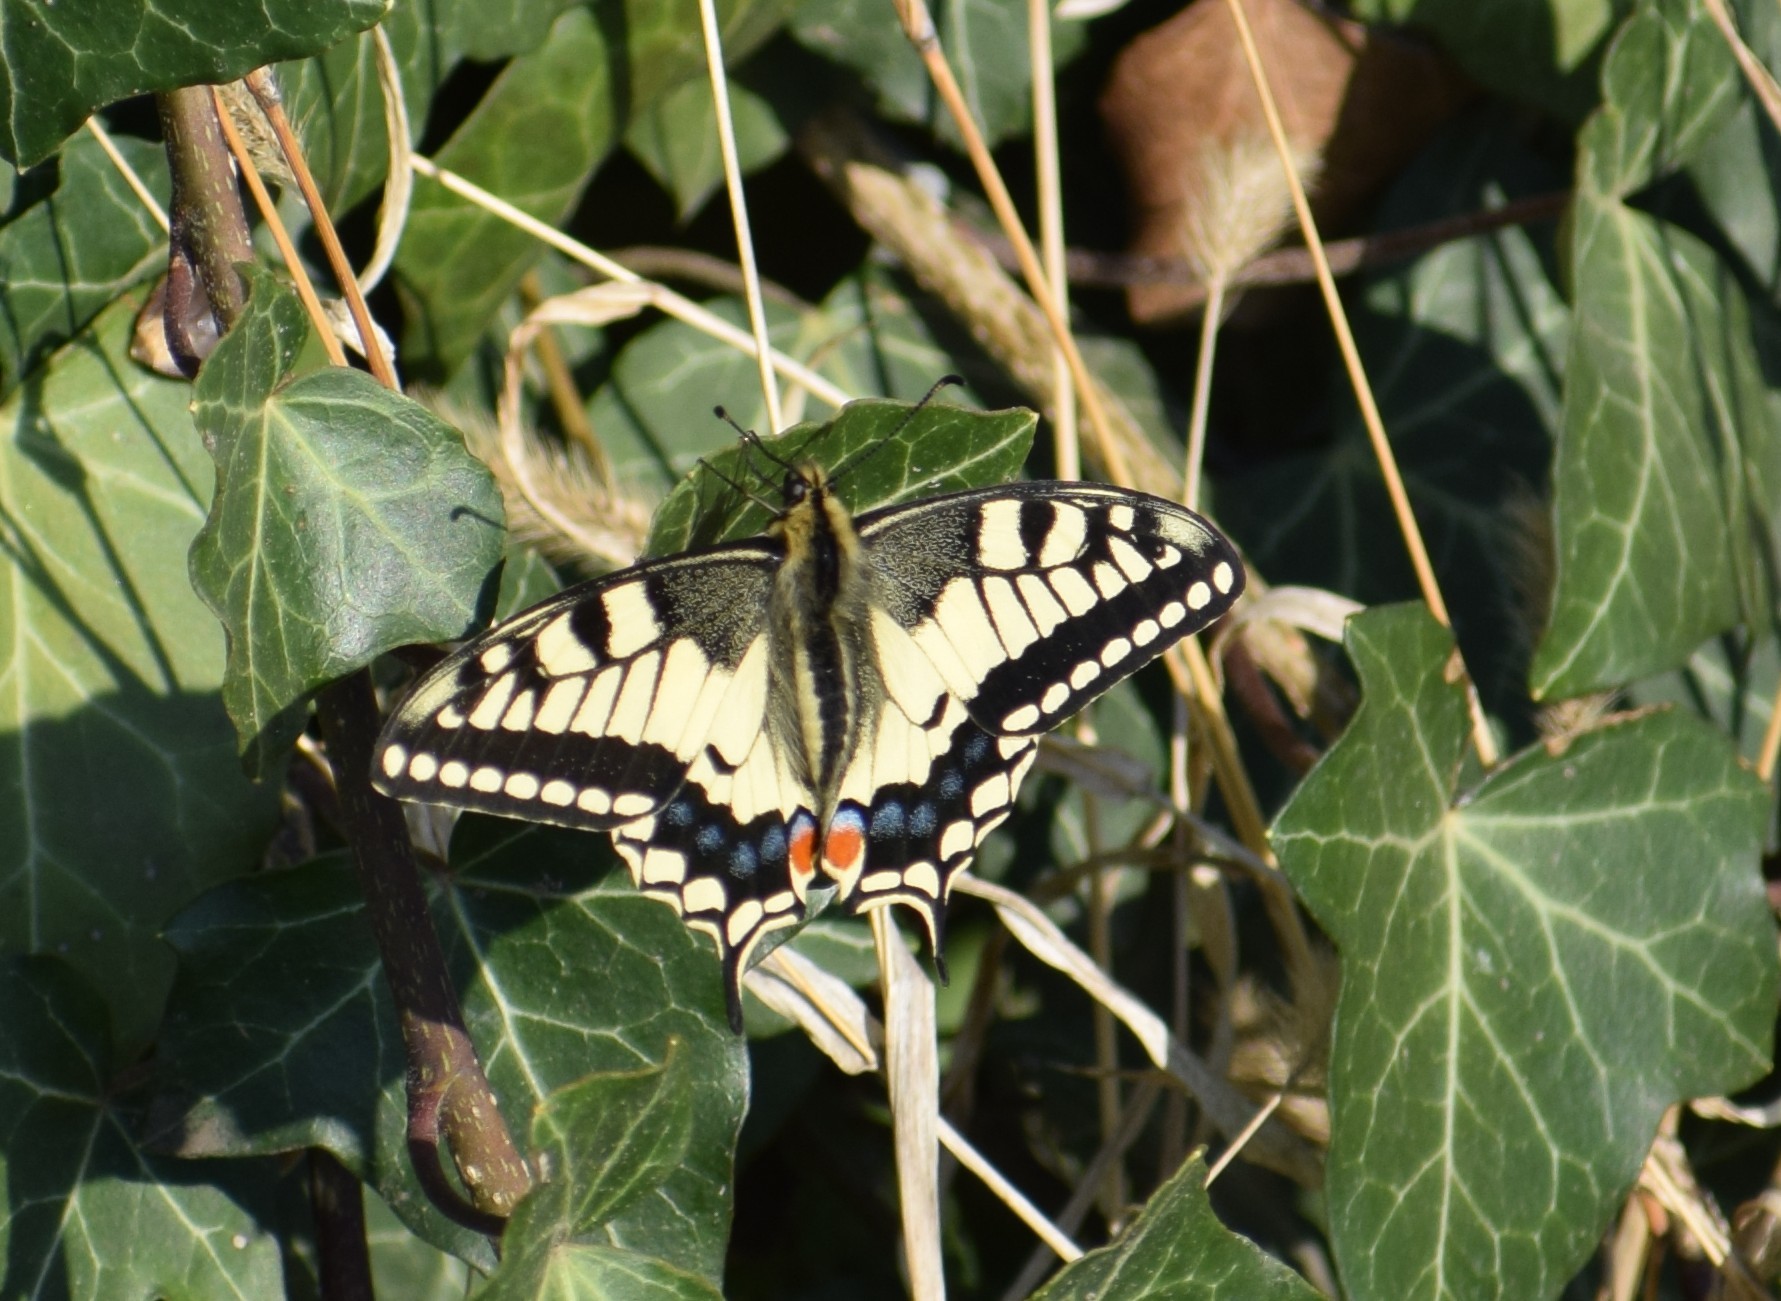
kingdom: Animalia
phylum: Arthropoda
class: Insecta
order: Lepidoptera
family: Papilionidae
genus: Papilio
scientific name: Papilio machaon
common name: Swallowtail
